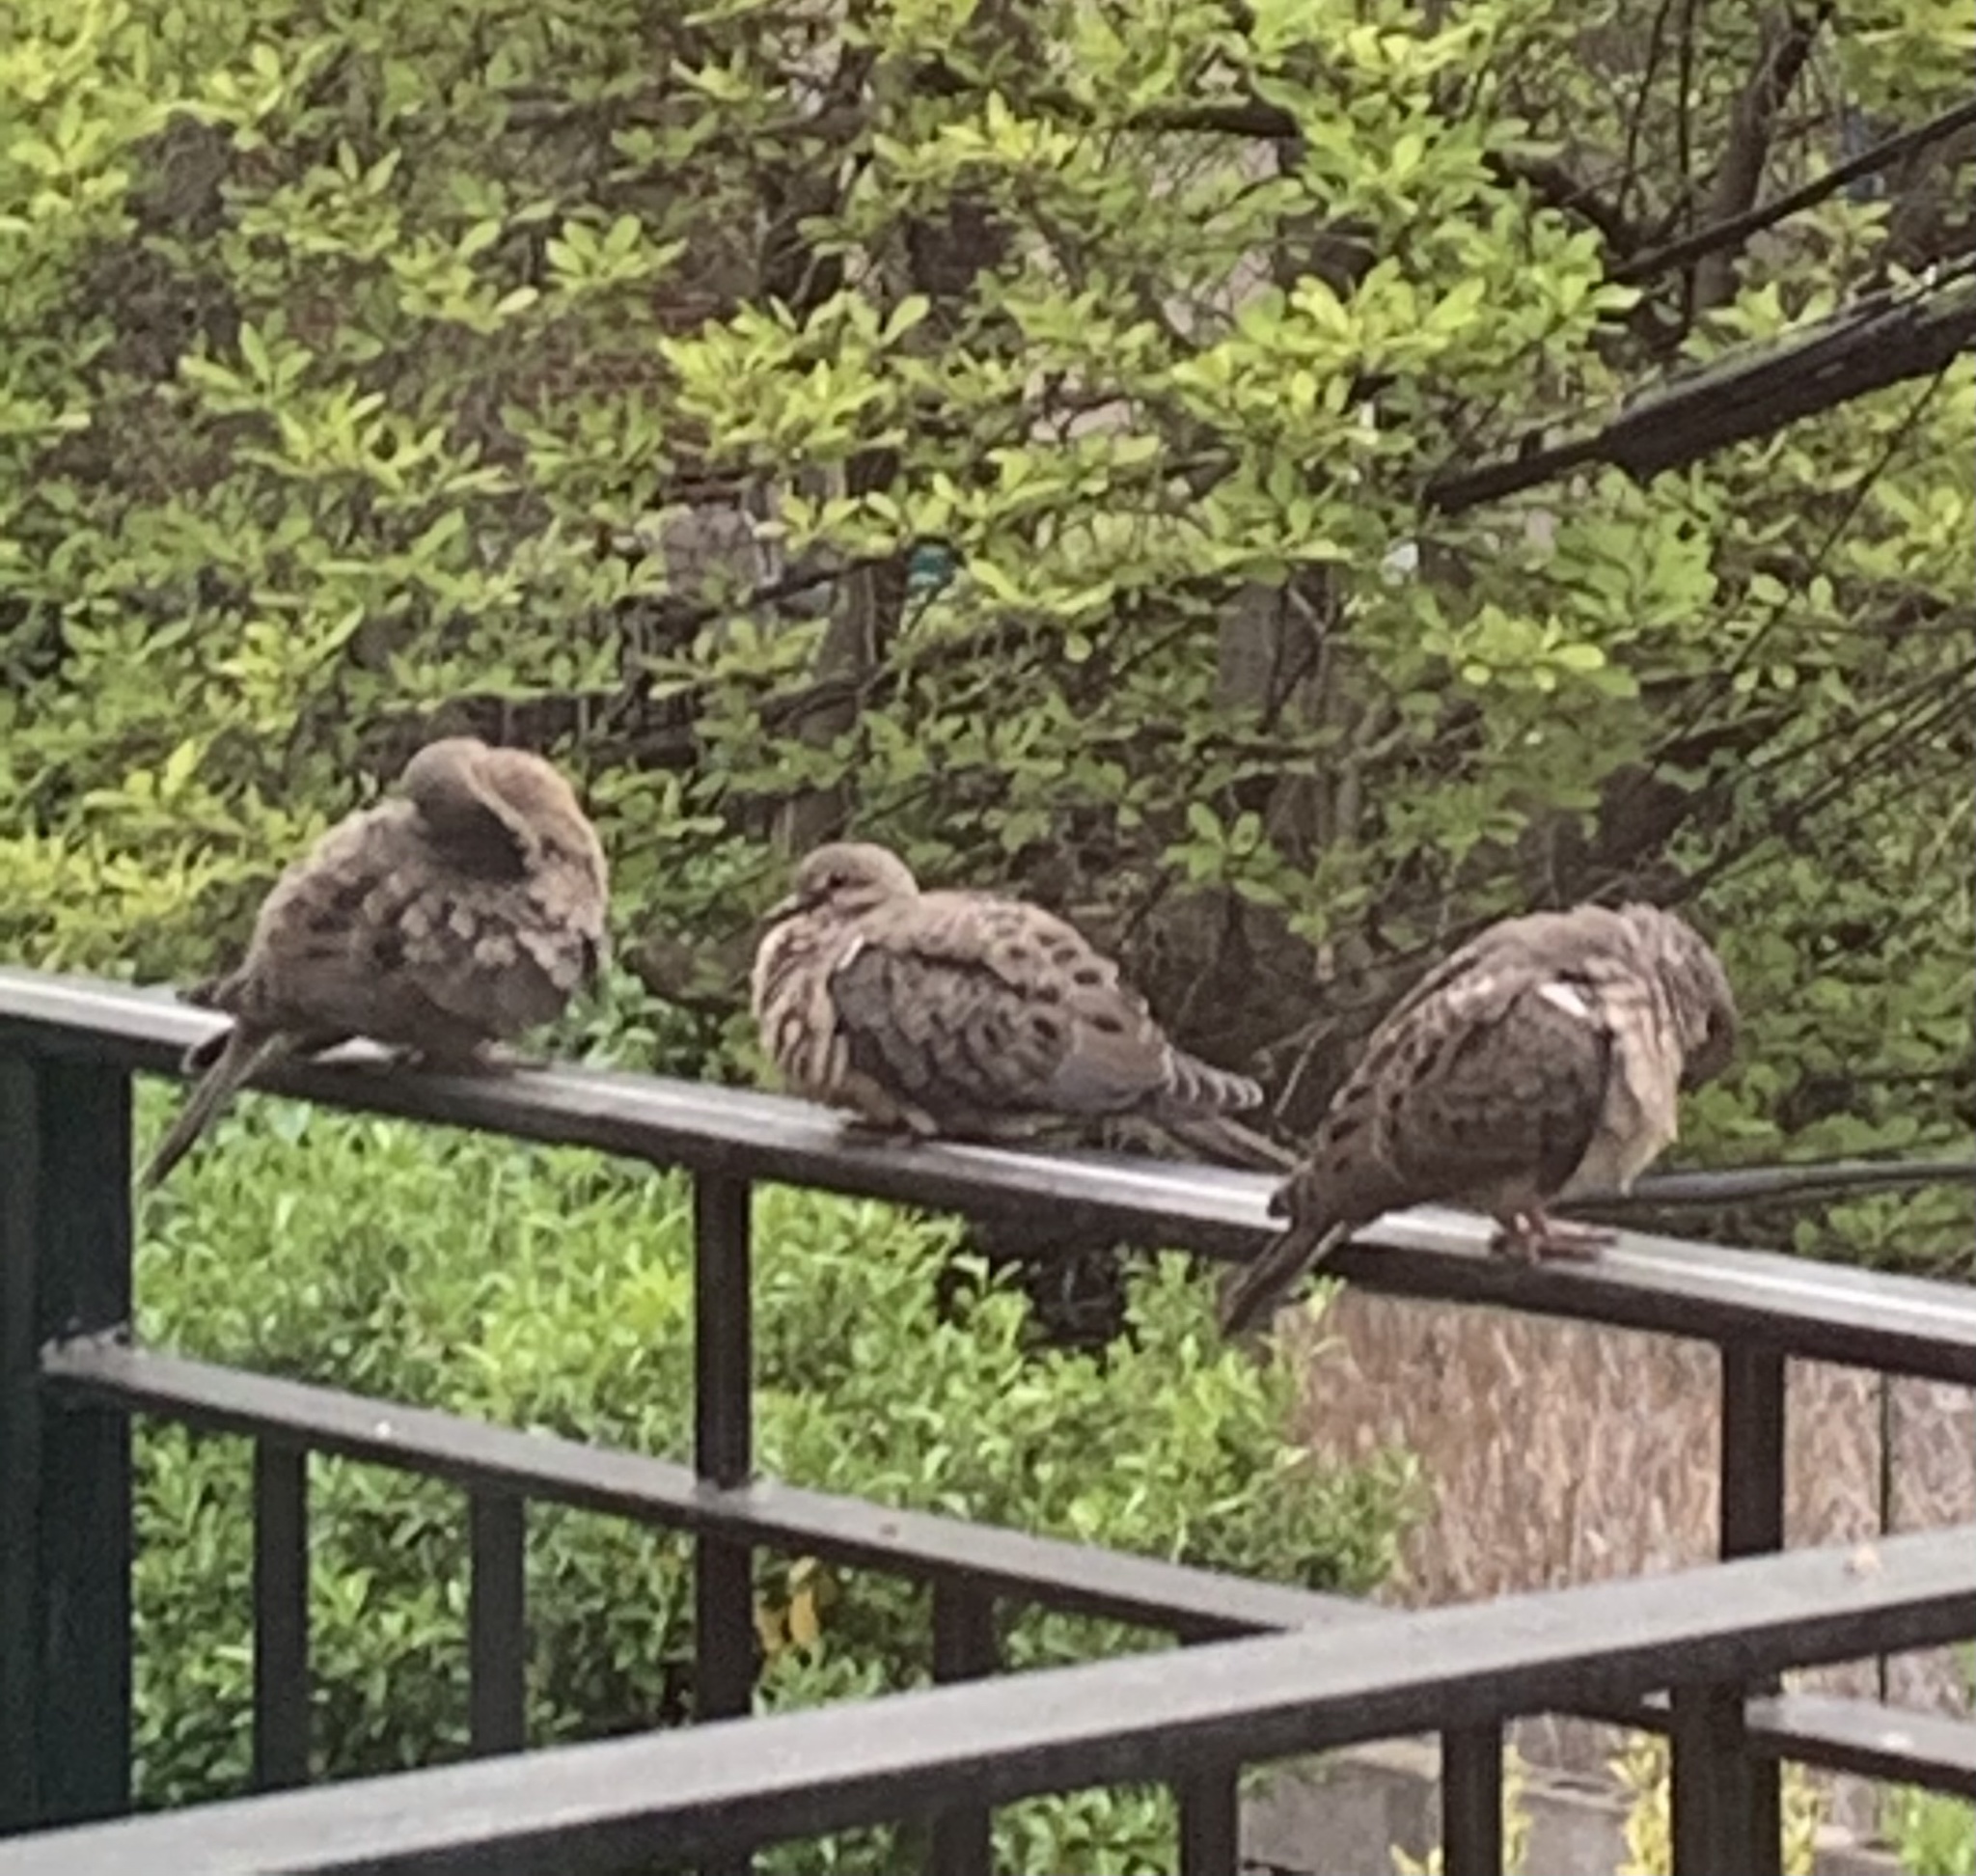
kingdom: Animalia
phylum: Chordata
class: Aves
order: Columbiformes
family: Columbidae
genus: Zenaida
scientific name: Zenaida macroura
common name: Mourning dove
